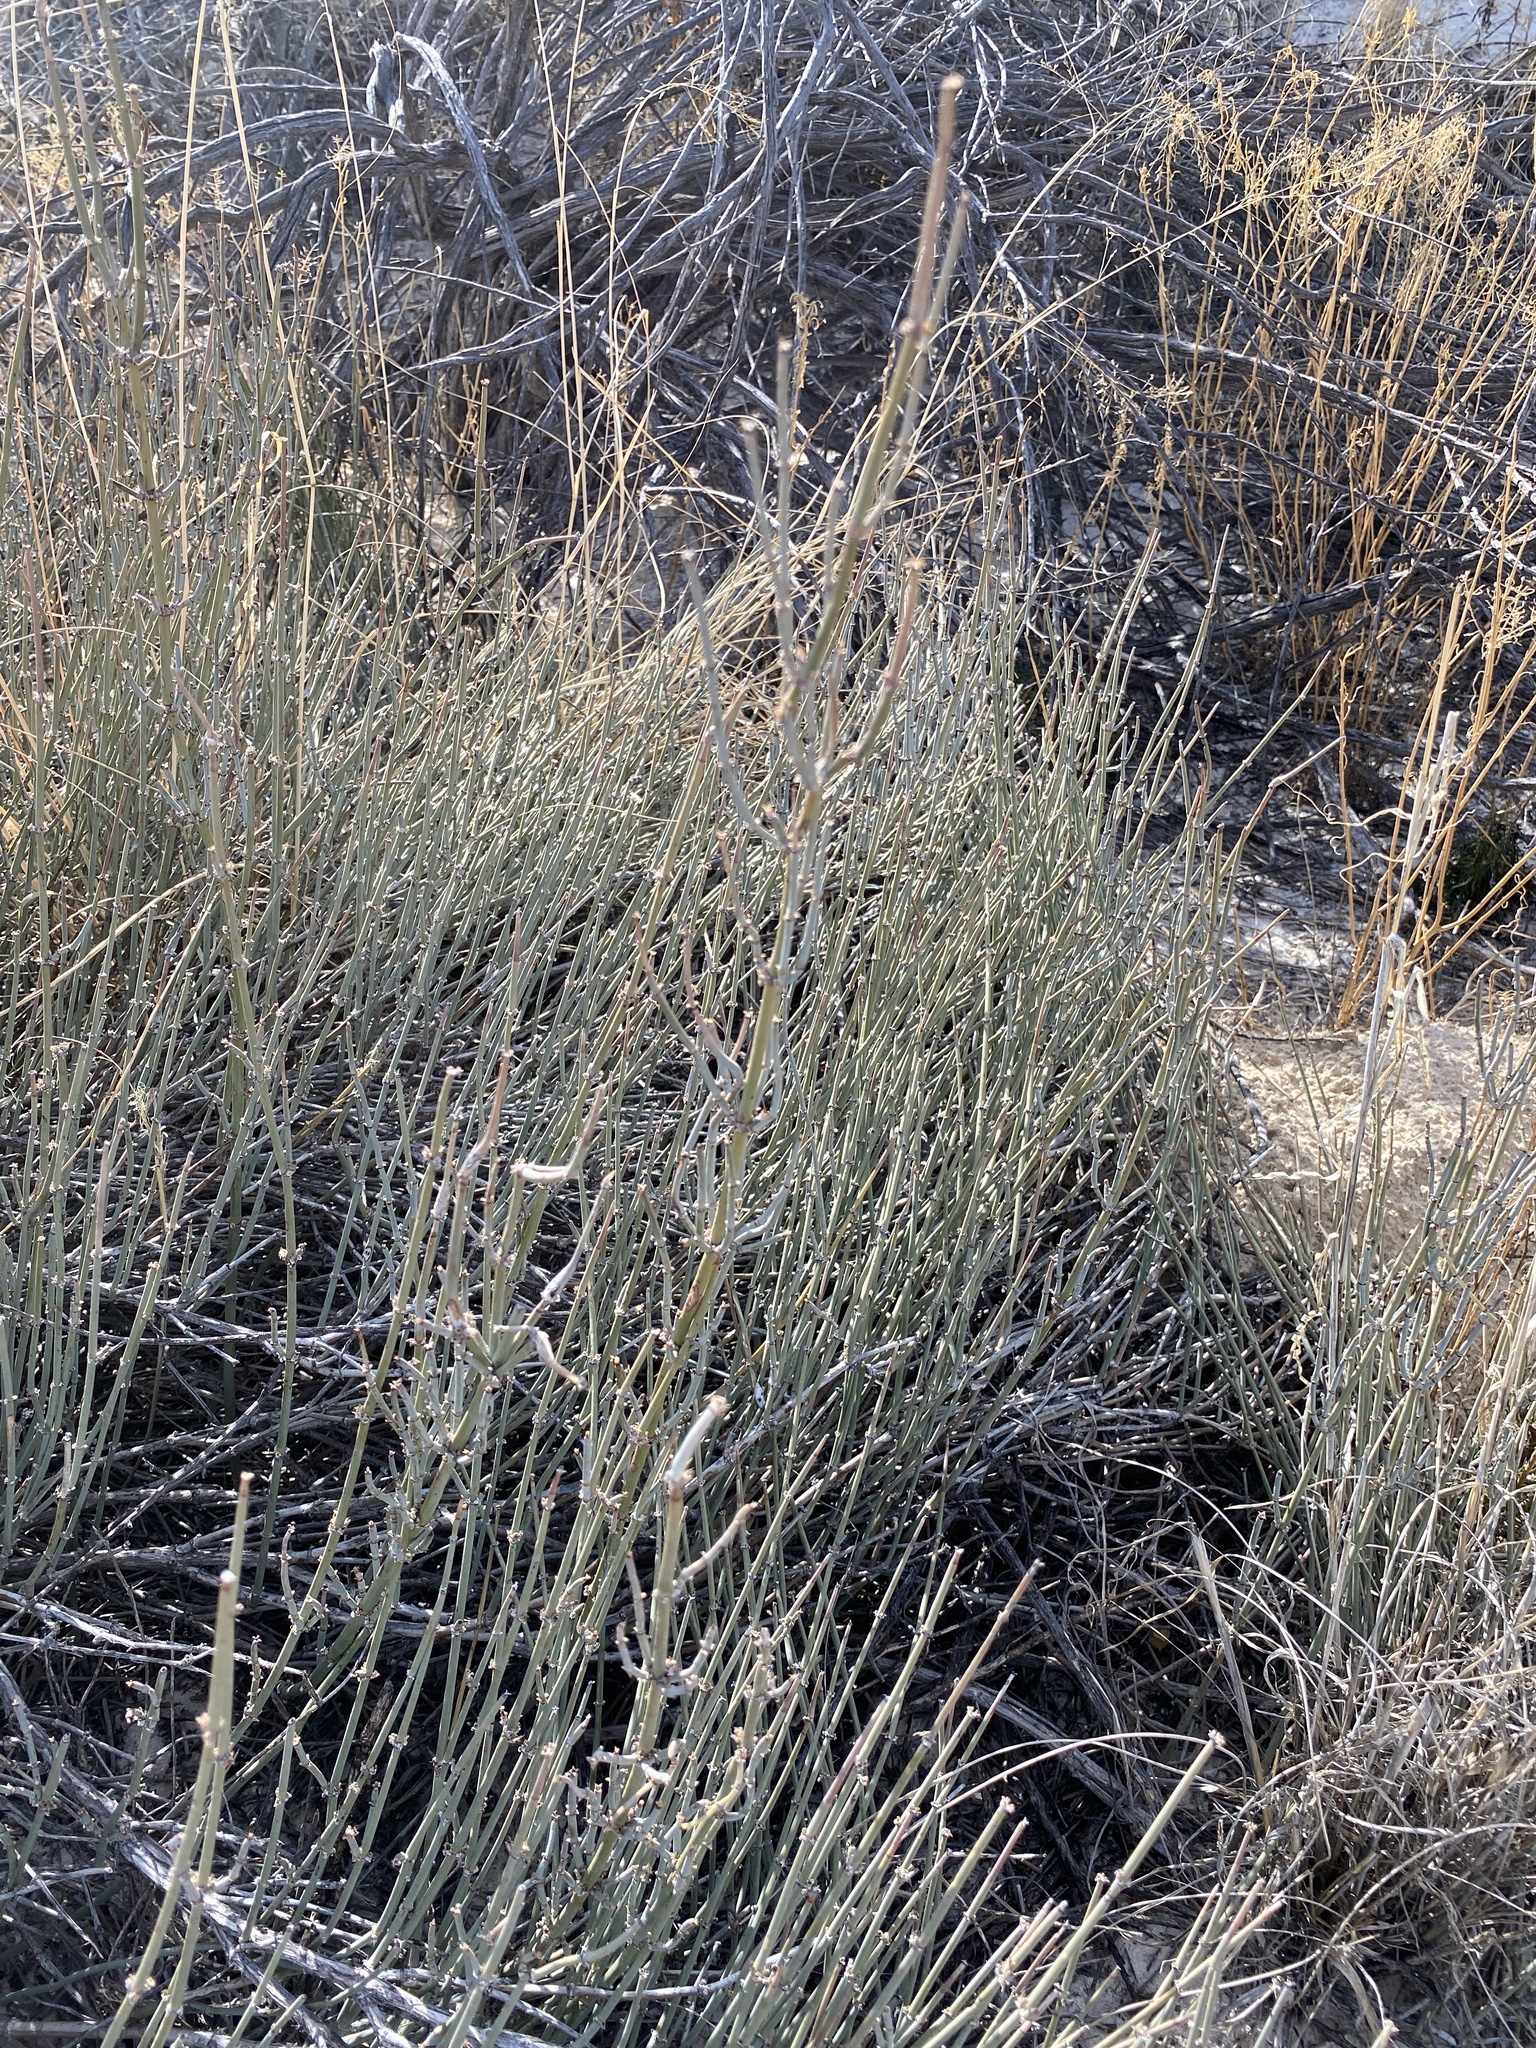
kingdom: Plantae
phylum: Tracheophyta
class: Gnetopsida
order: Ephedrales
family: Ephedraceae
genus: Ephedra
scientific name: Ephedra torreyana
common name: Torrey ephedra
